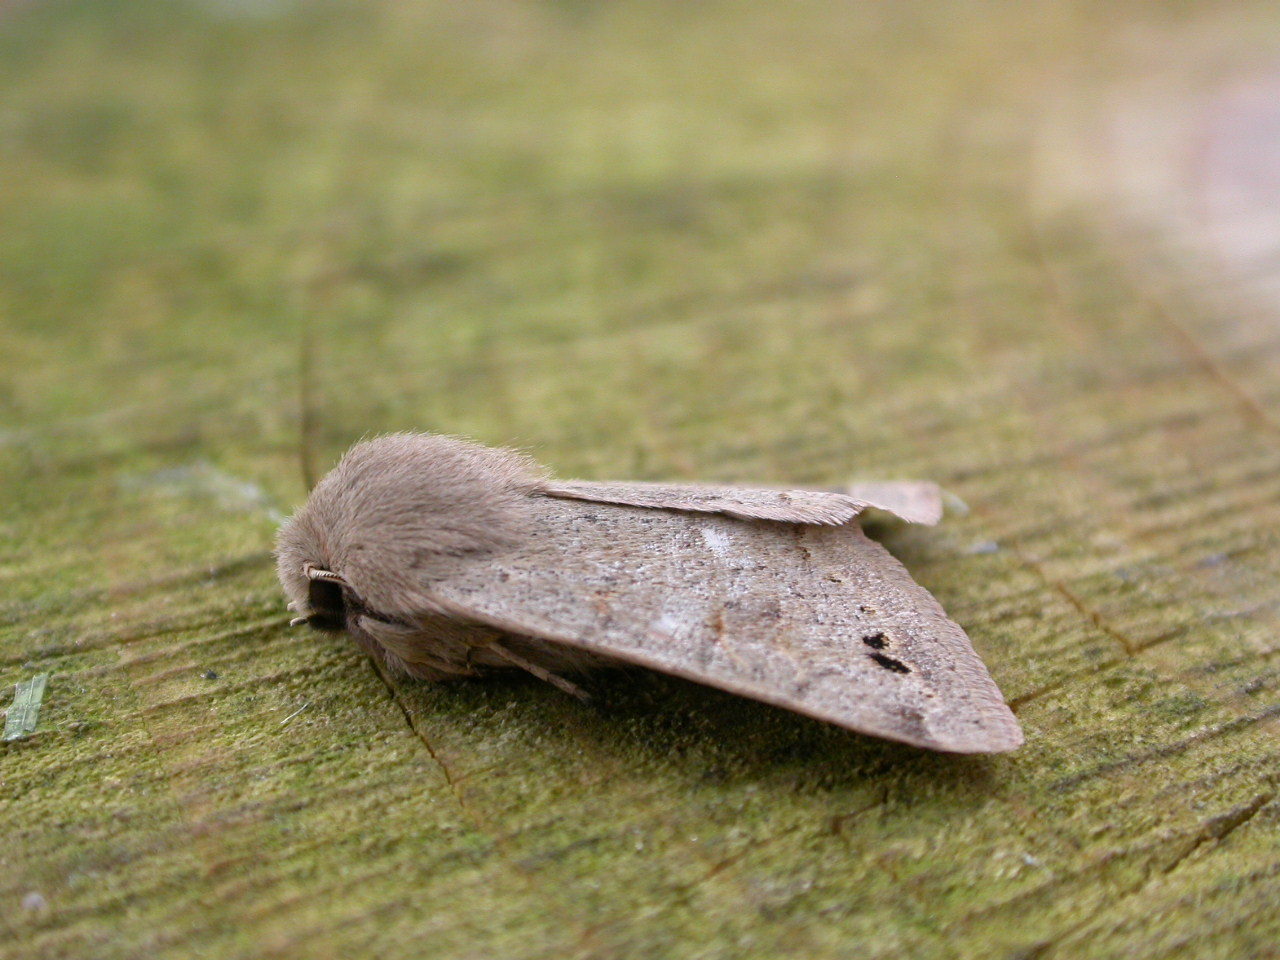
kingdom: Animalia
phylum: Arthropoda
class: Insecta
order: Lepidoptera
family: Noctuidae
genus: Anorthoa
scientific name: Anorthoa munda
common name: Twin-spotted quaker
